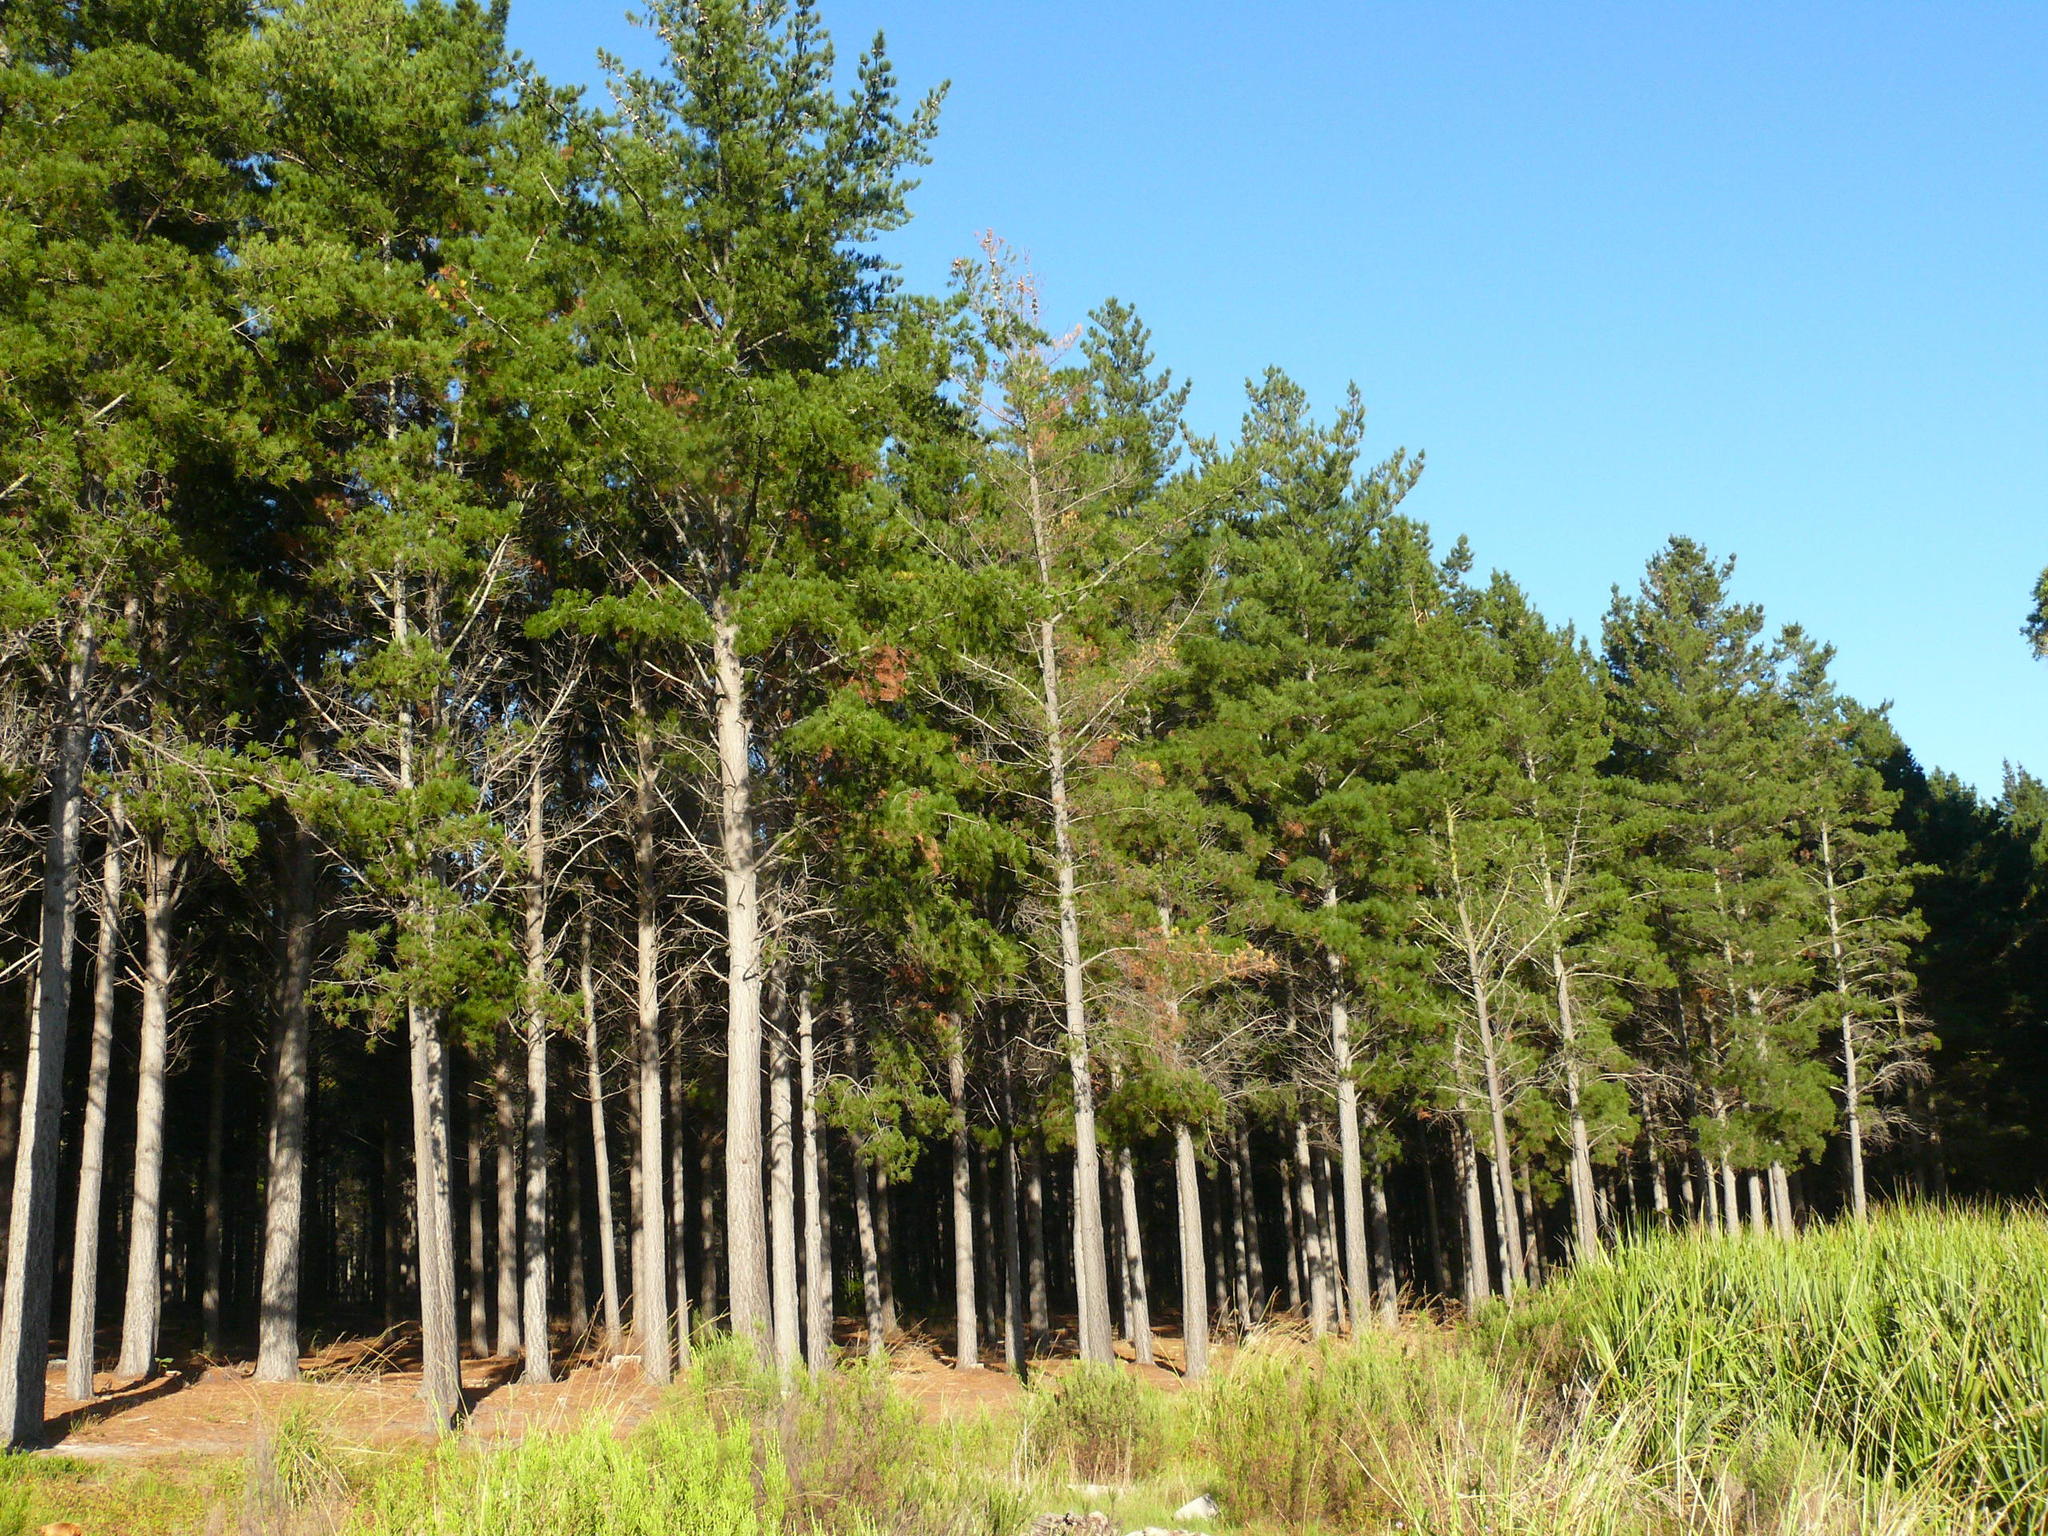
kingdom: Fungi
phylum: Ascomycota
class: Sordariomycetes
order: Hypocreales
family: Nectriaceae
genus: Fusarium
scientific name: Fusarium circinatum
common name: Pitch canker
